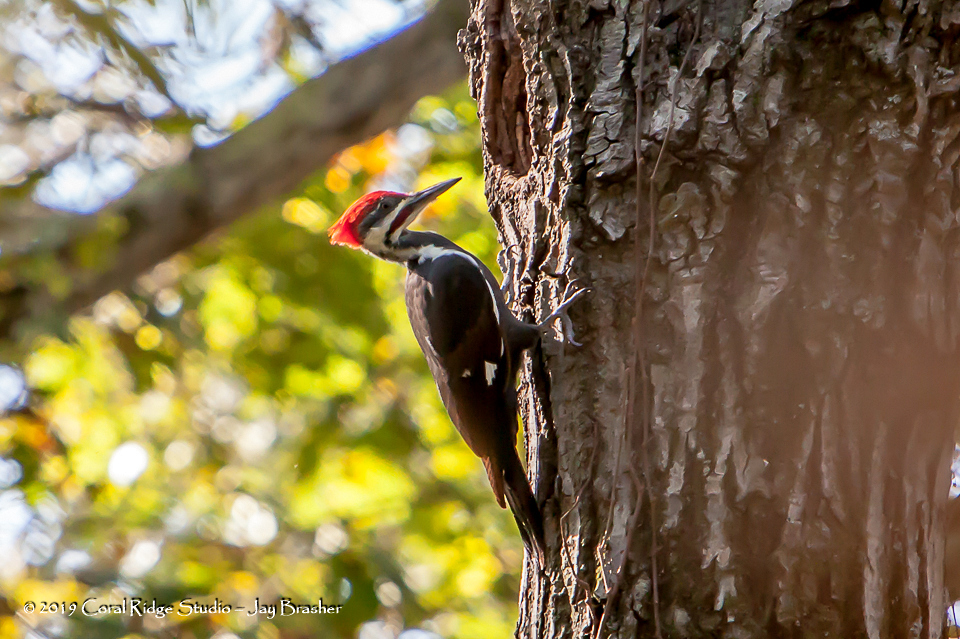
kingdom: Animalia
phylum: Chordata
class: Aves
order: Piciformes
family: Picidae
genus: Dryocopus
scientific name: Dryocopus pileatus
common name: Pileated woodpecker
